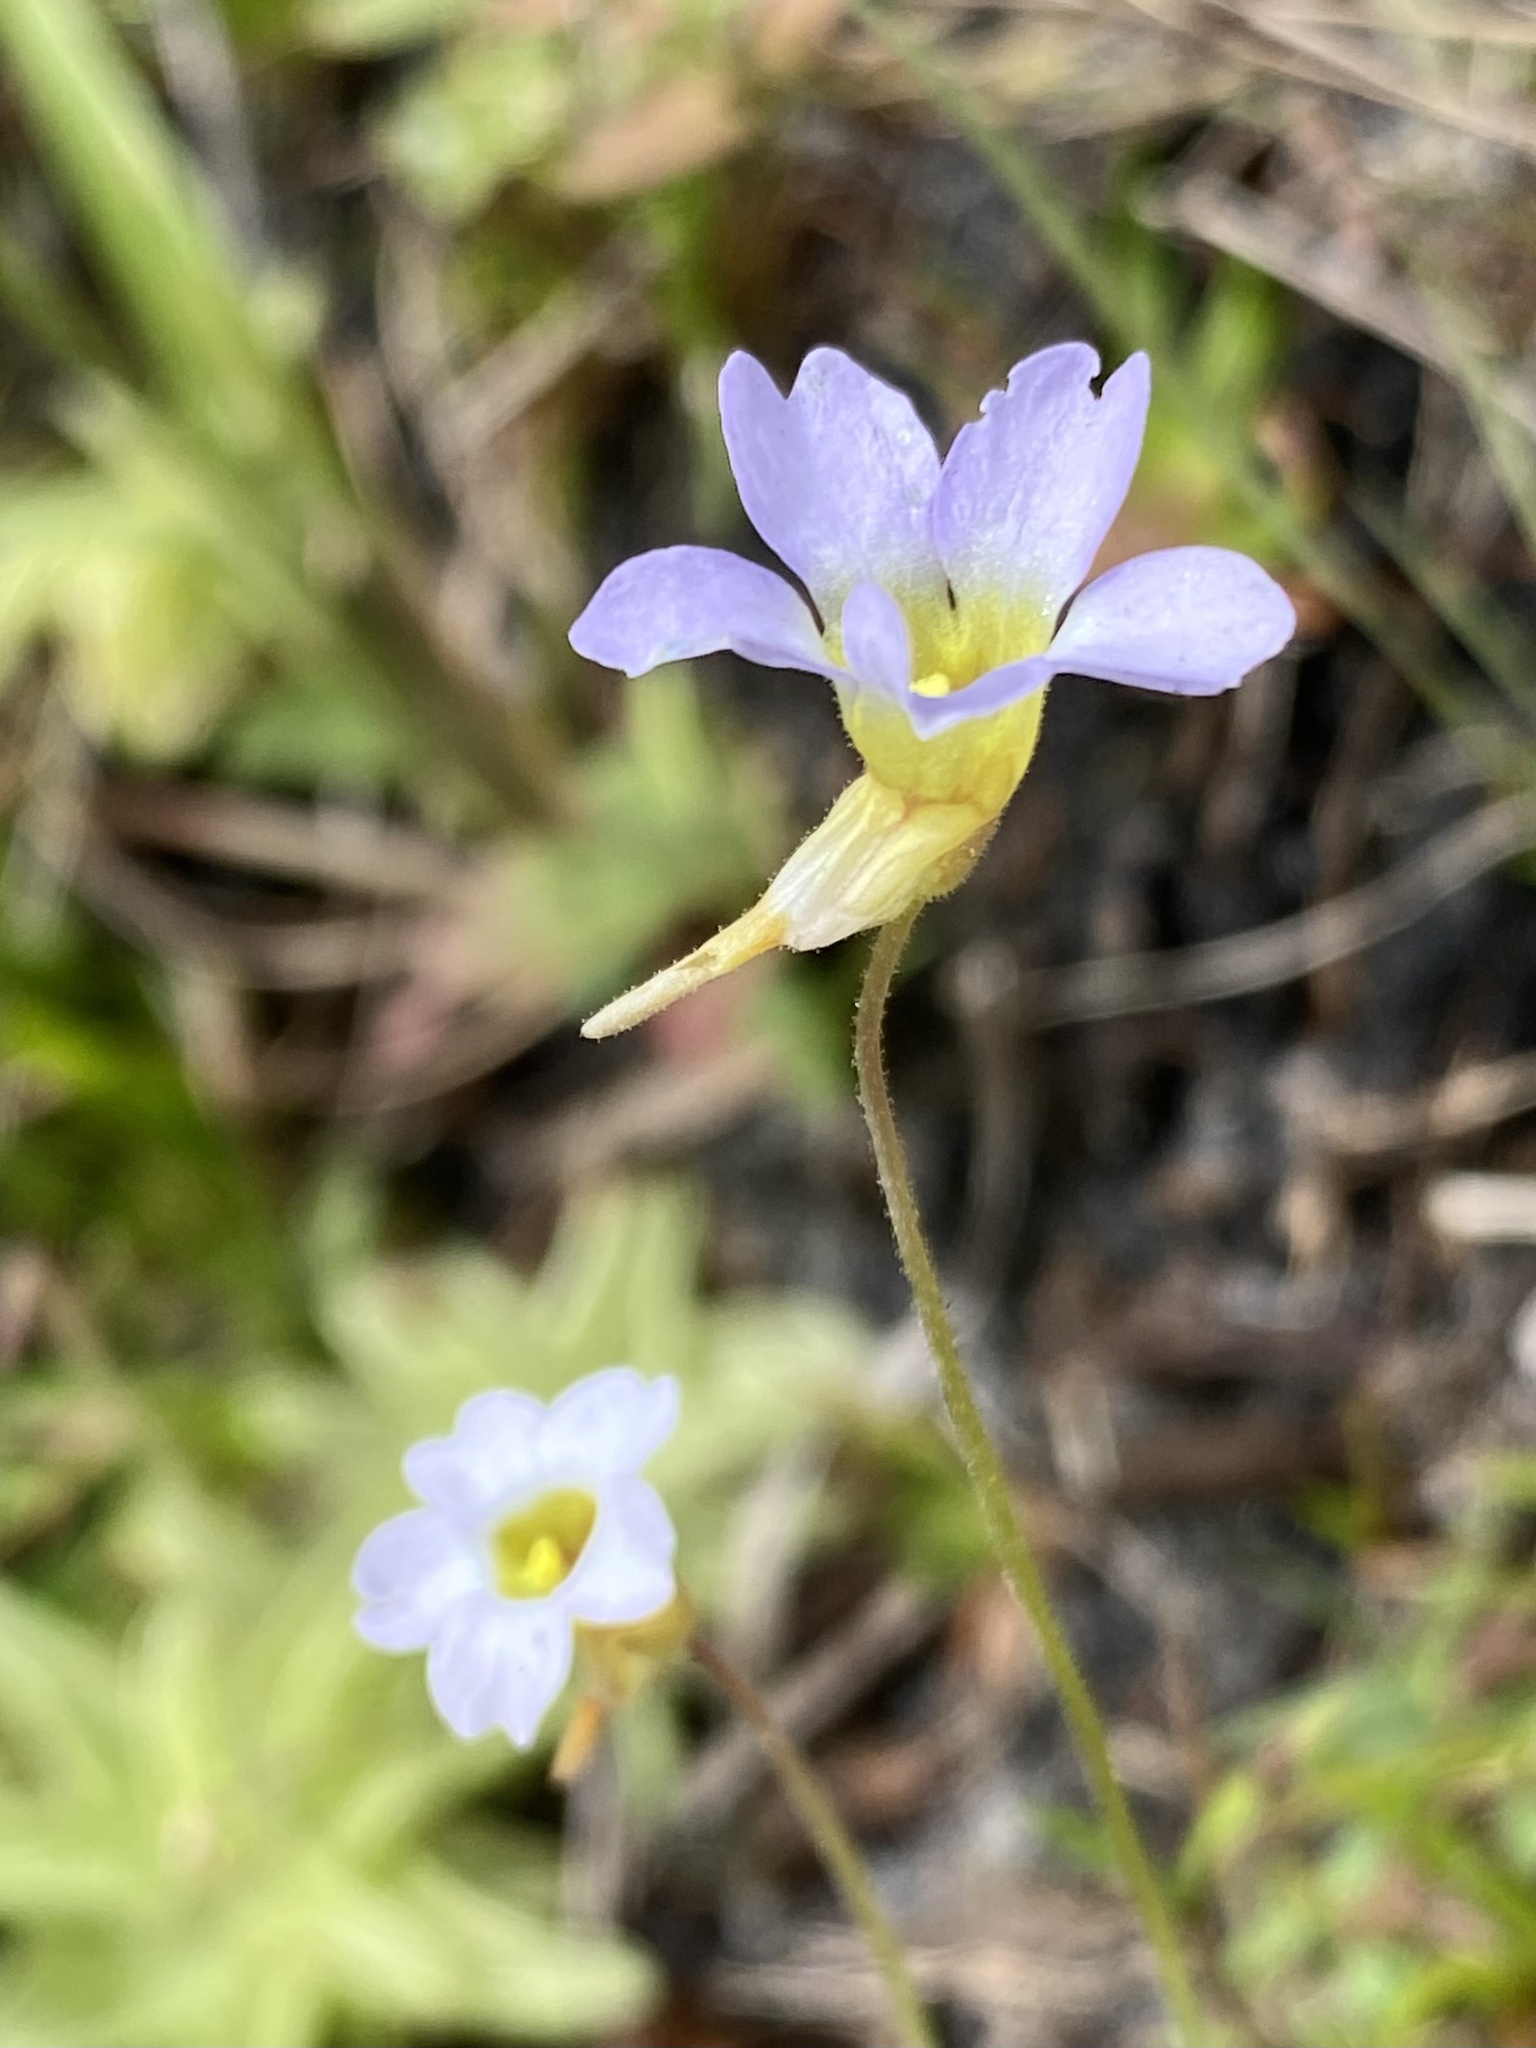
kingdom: Plantae
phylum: Tracheophyta
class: Magnoliopsida
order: Lamiales
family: Lentibulariaceae
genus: Pinguicula
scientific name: Pinguicula pumila
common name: Small butterwort
